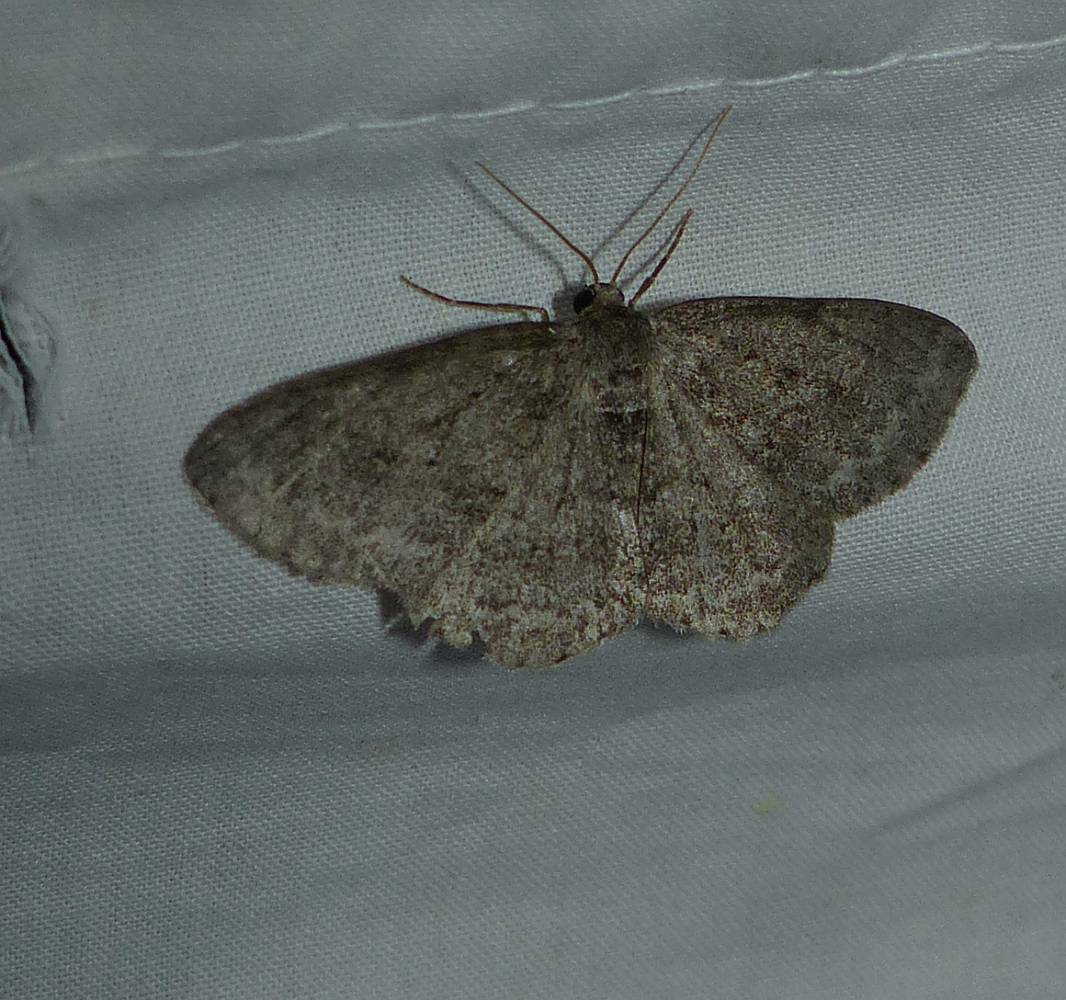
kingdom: Animalia
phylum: Arthropoda
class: Insecta
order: Lepidoptera
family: Geometridae
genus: Ectropis
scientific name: Ectropis crepuscularia
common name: Engrailed
